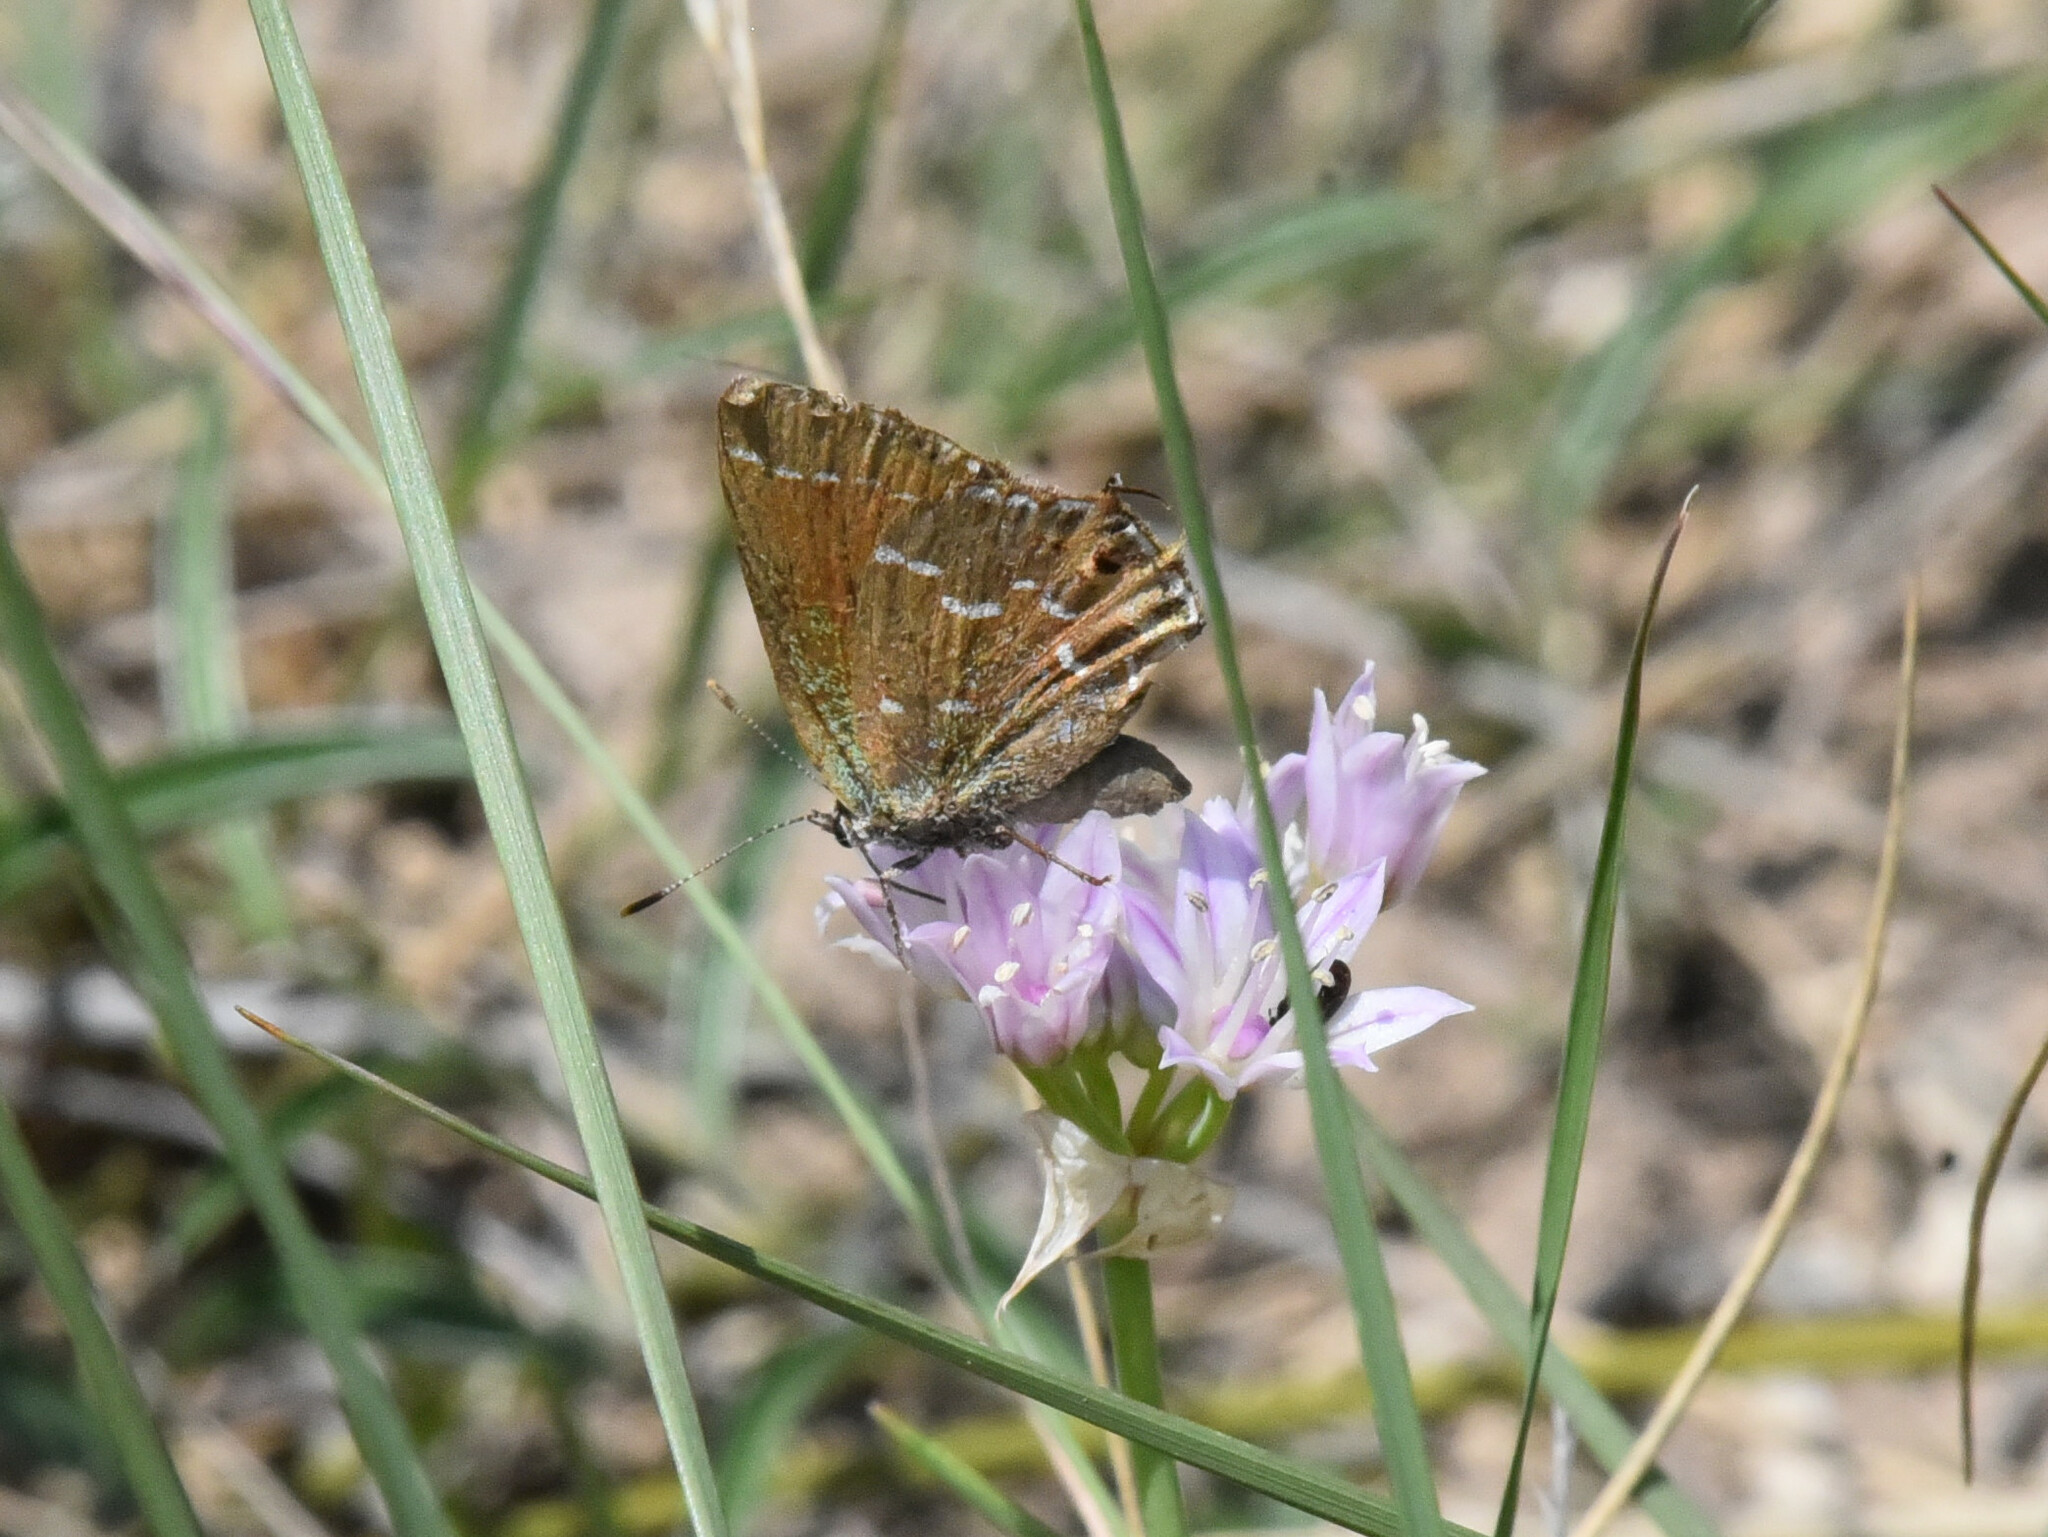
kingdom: Animalia
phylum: Arthropoda
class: Insecta
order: Lepidoptera
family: Lycaenidae
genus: Mitoura
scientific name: Mitoura gryneus
